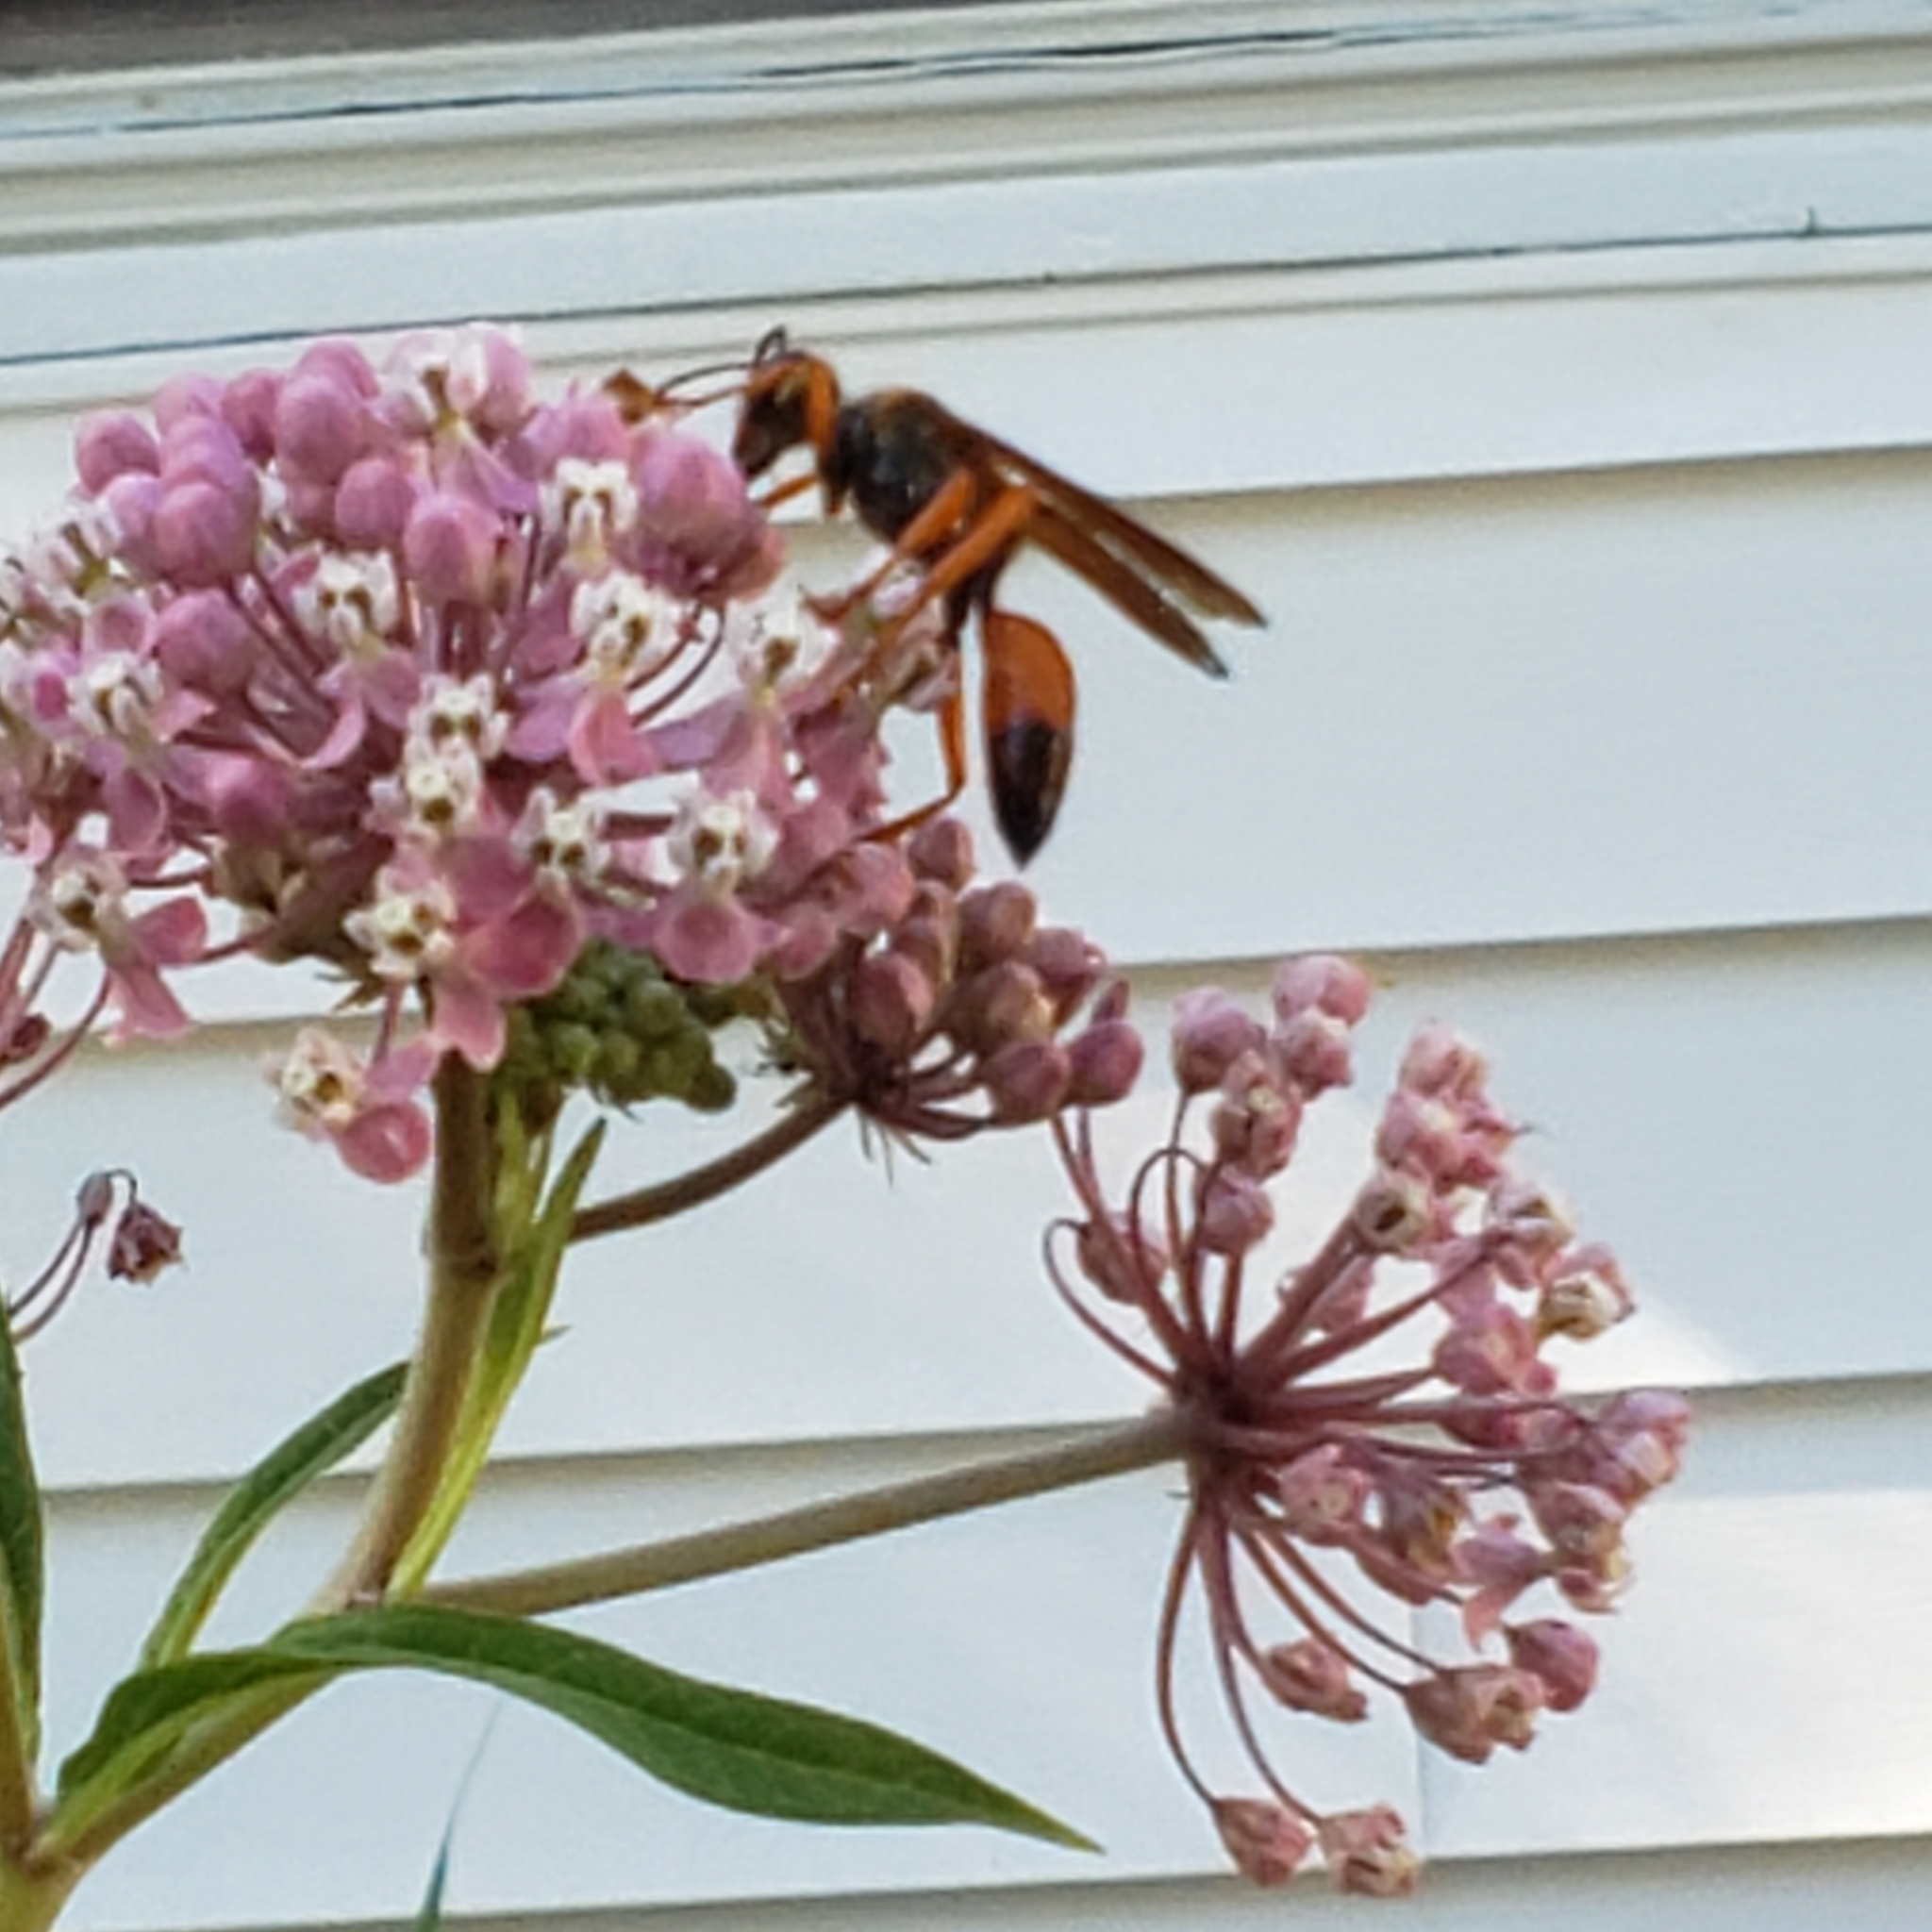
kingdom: Animalia
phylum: Arthropoda
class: Insecta
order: Hymenoptera
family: Sphecidae
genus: Sphex
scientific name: Sphex ichneumoneus
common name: Great golden digger wasp
